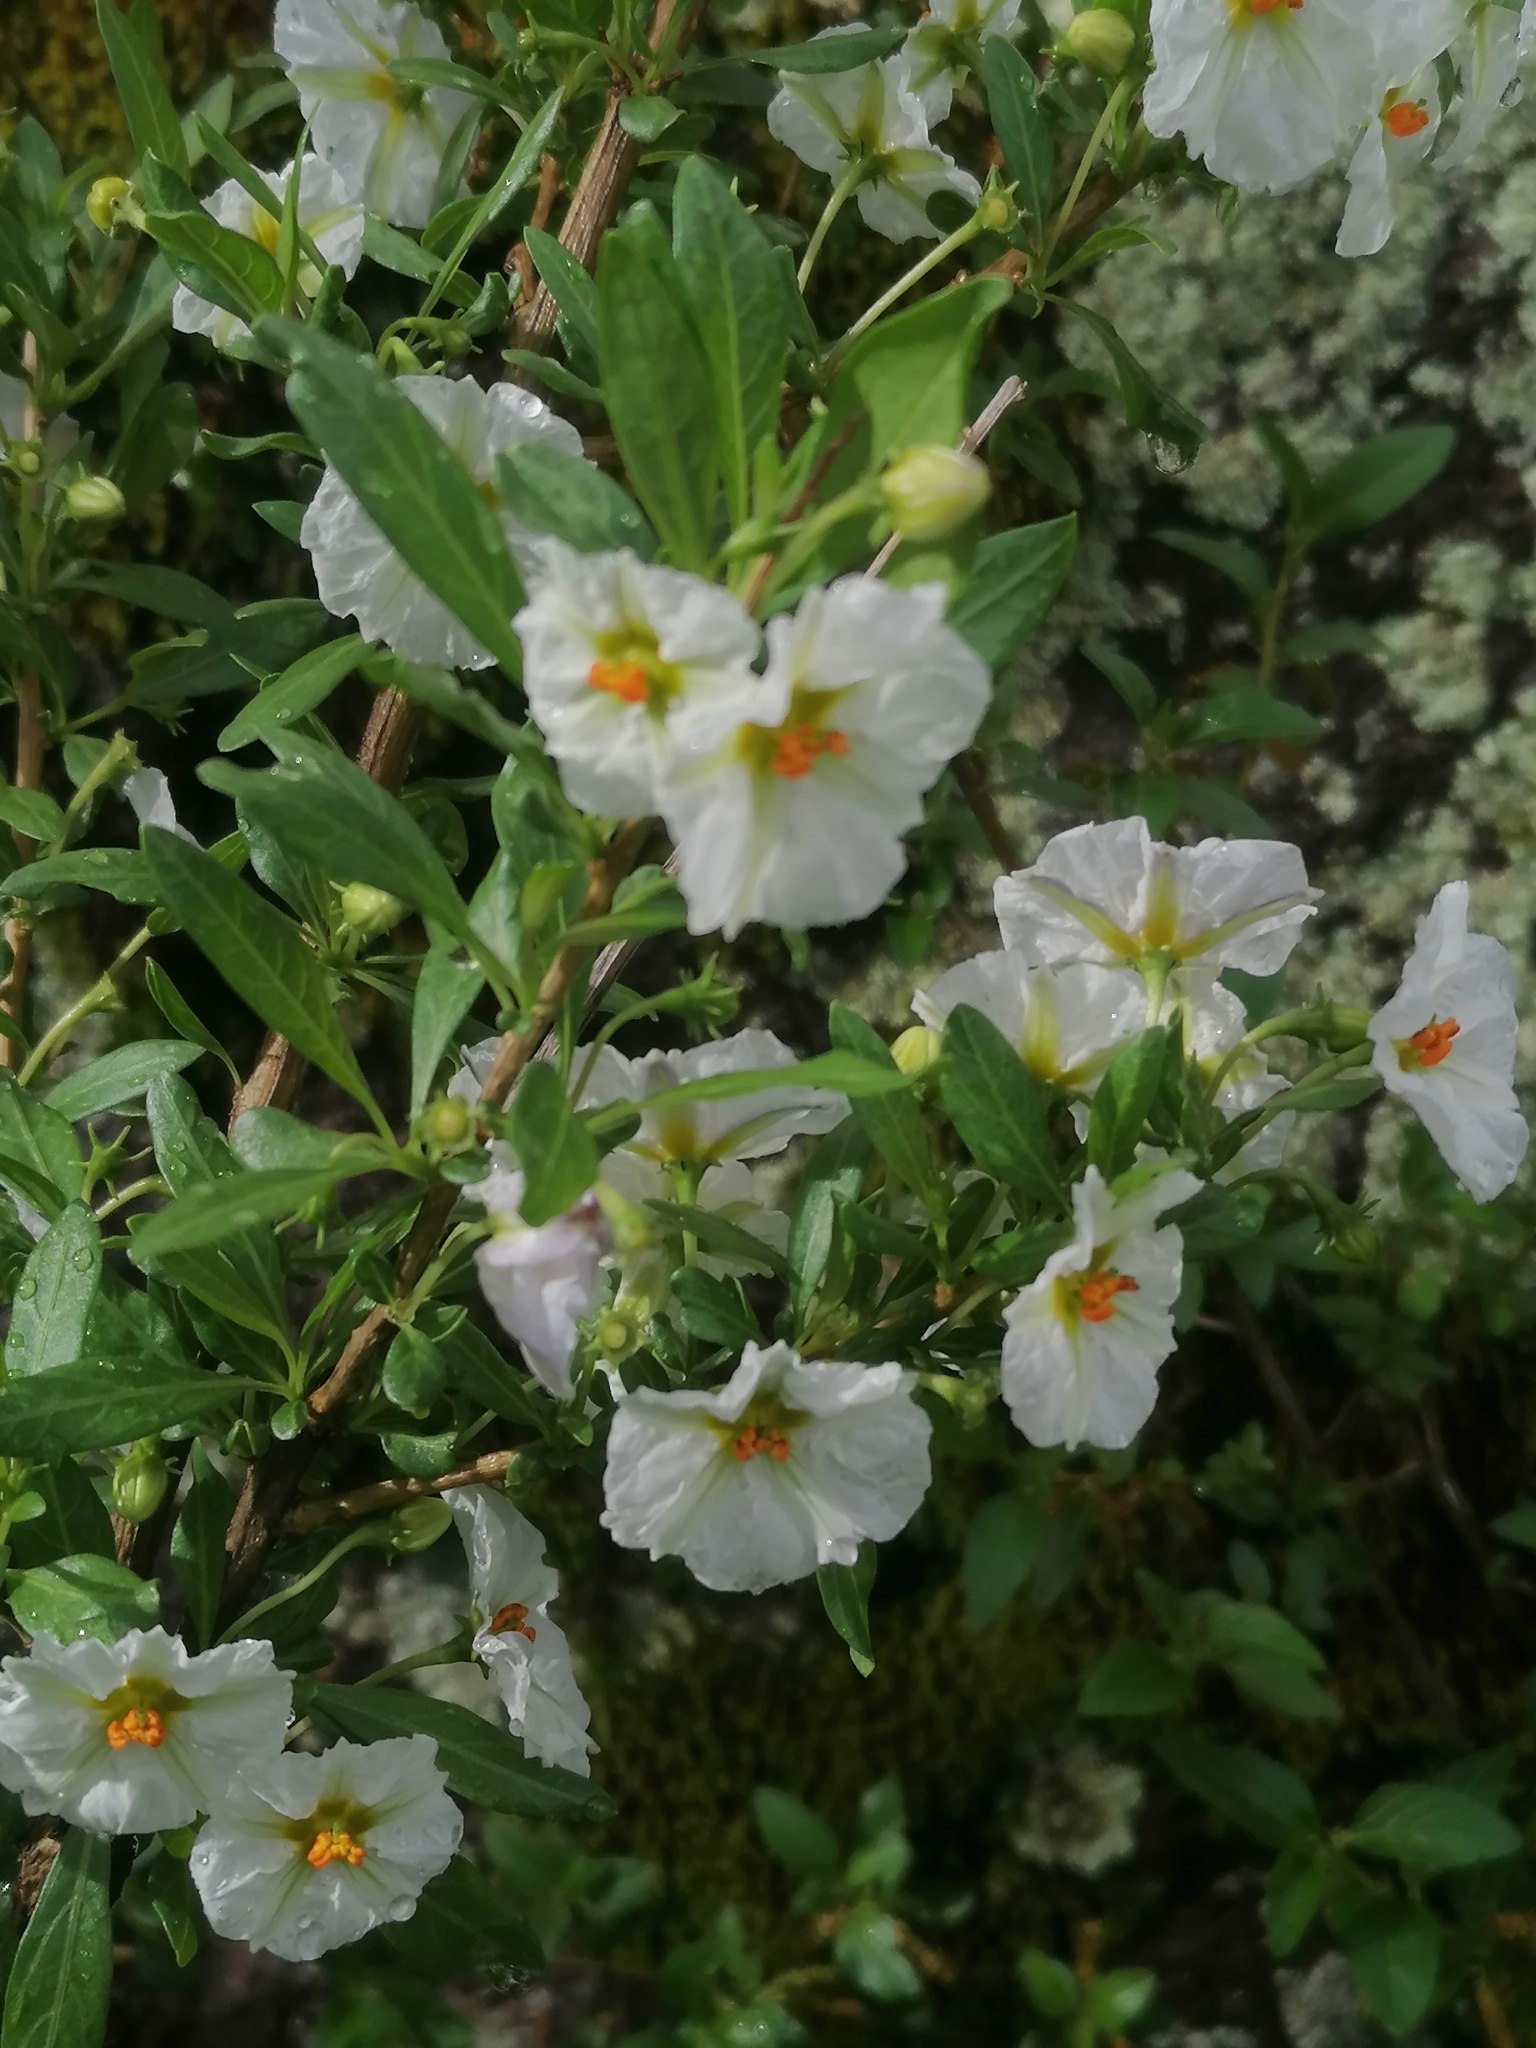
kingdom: Plantae
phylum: Tracheophyta
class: Magnoliopsida
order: Solanales
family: Solanaceae
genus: Lycianthes
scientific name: Lycianthes lycioides
